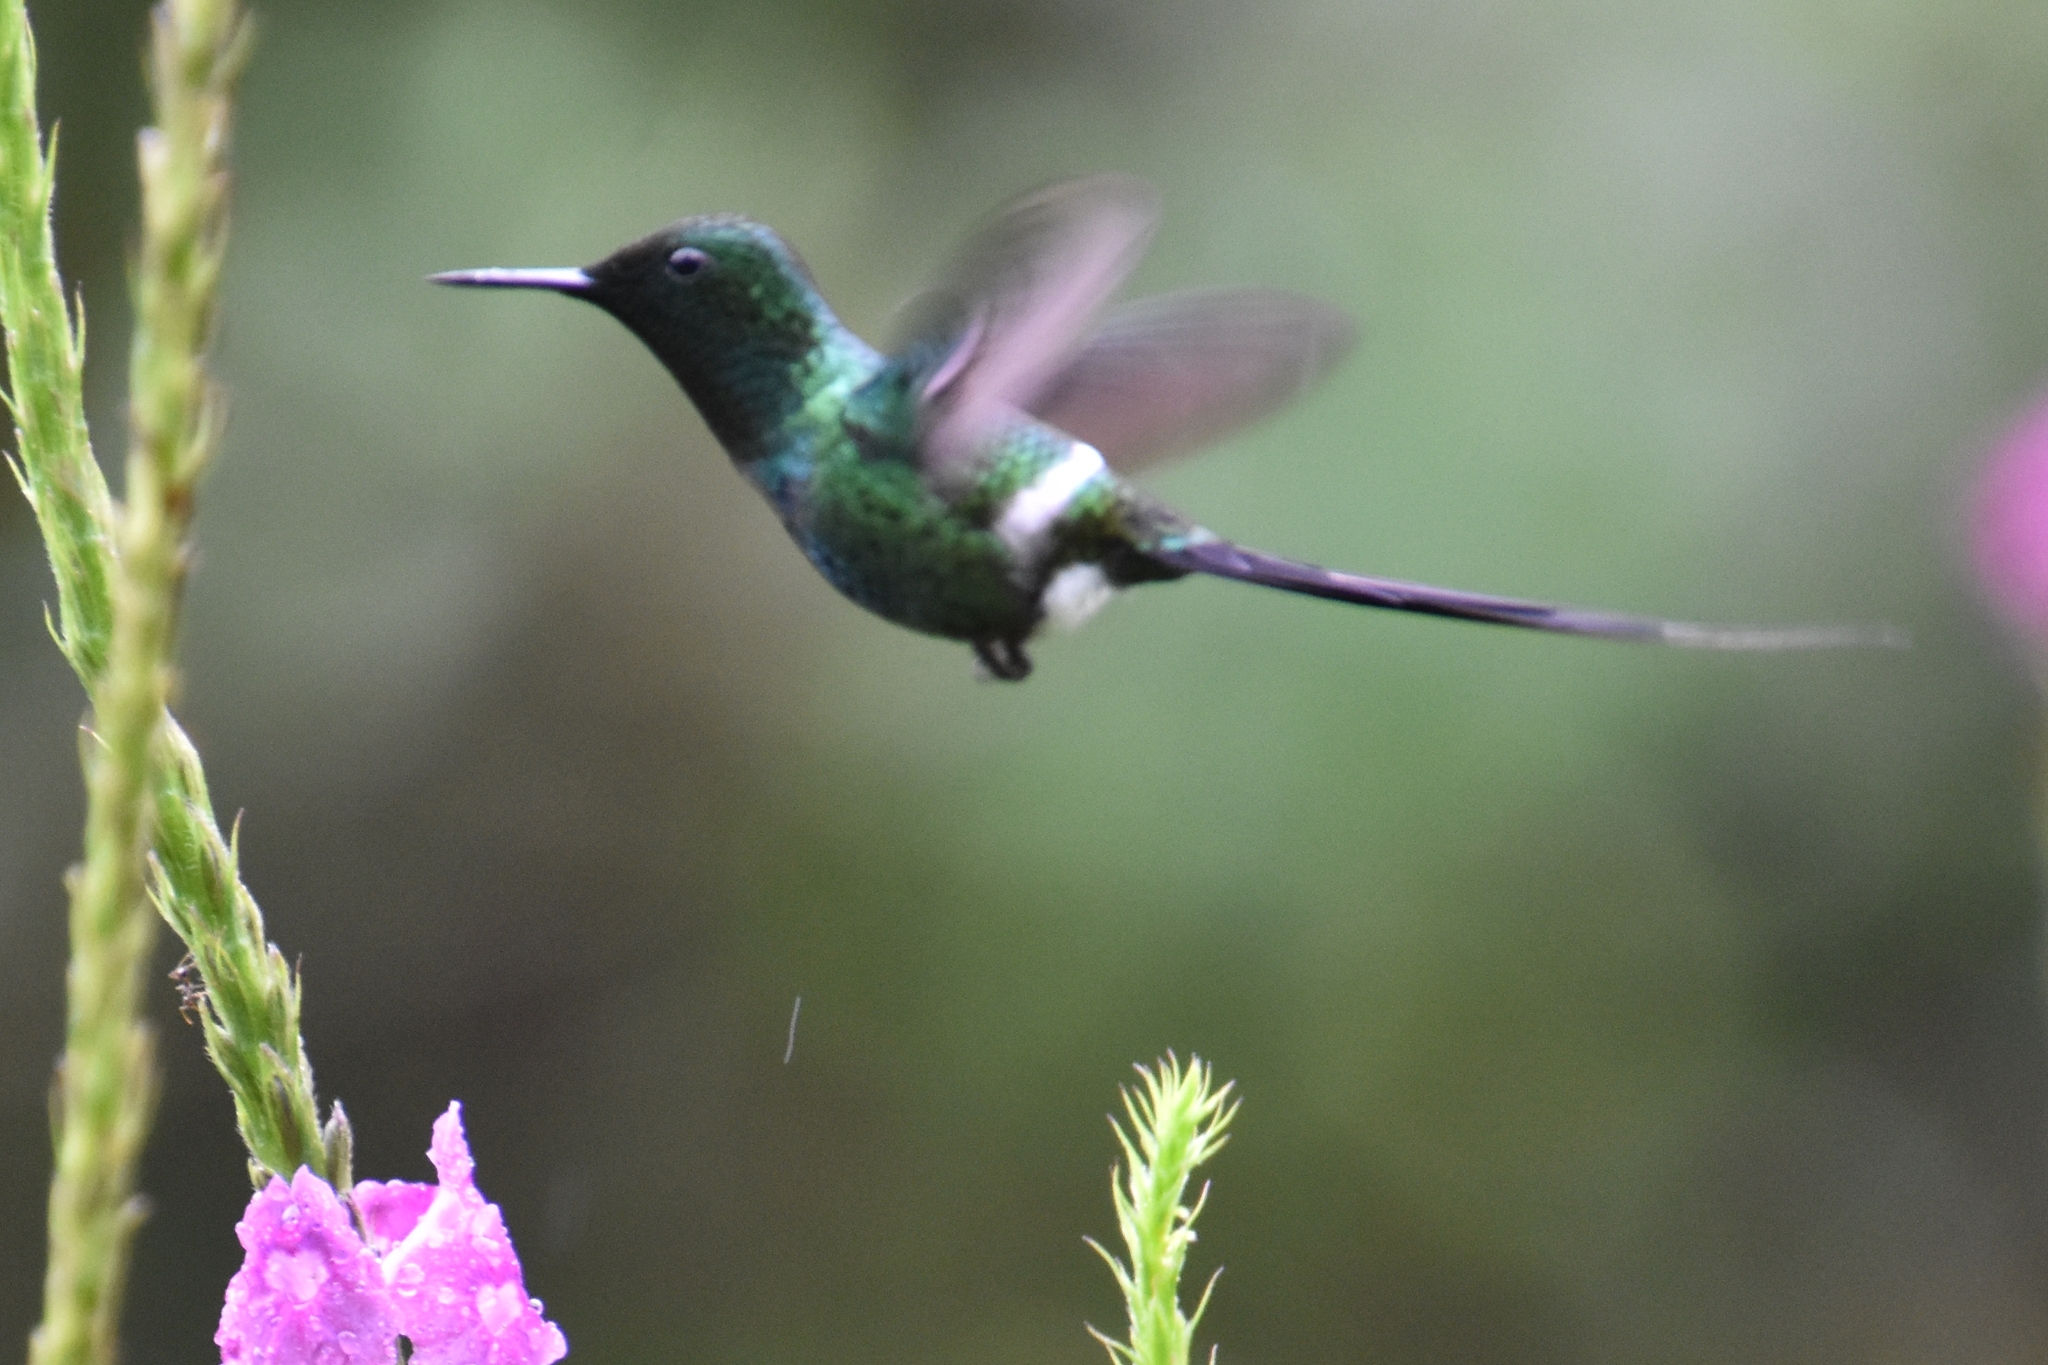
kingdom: Animalia
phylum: Chordata
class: Aves
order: Apodiformes
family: Trochilidae
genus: Discosura
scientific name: Discosura conversii
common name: Green thorntail
